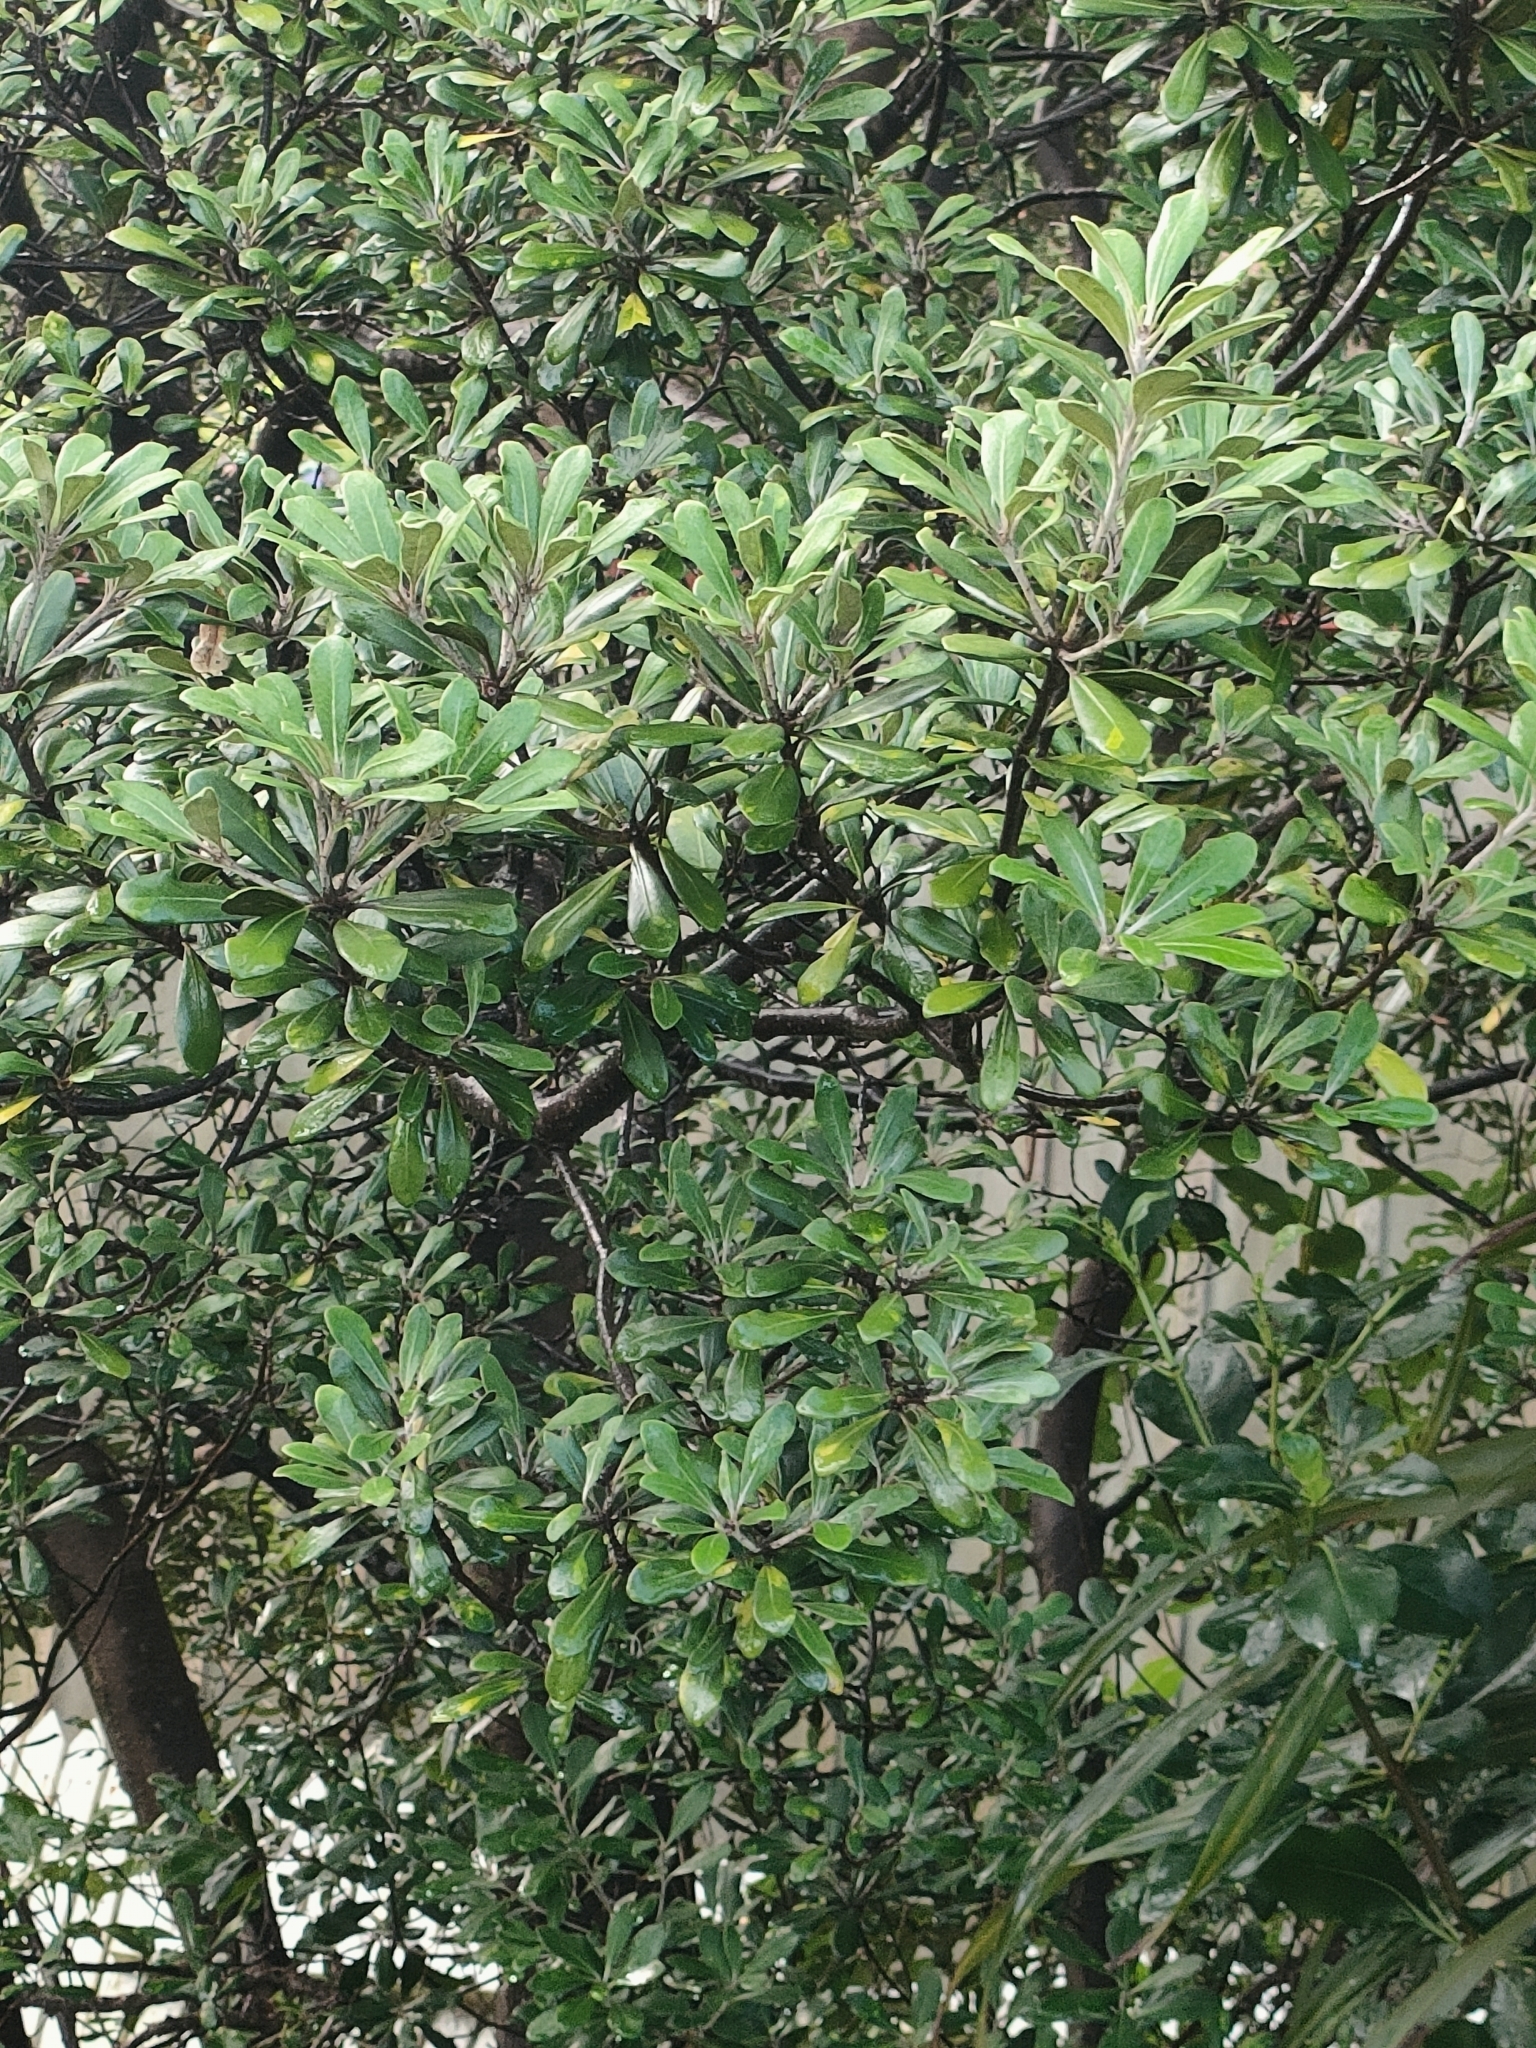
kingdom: Plantae
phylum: Tracheophyta
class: Magnoliopsida
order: Apiales
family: Pittosporaceae
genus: Pittosporum
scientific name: Pittosporum crassifolium
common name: Karo
